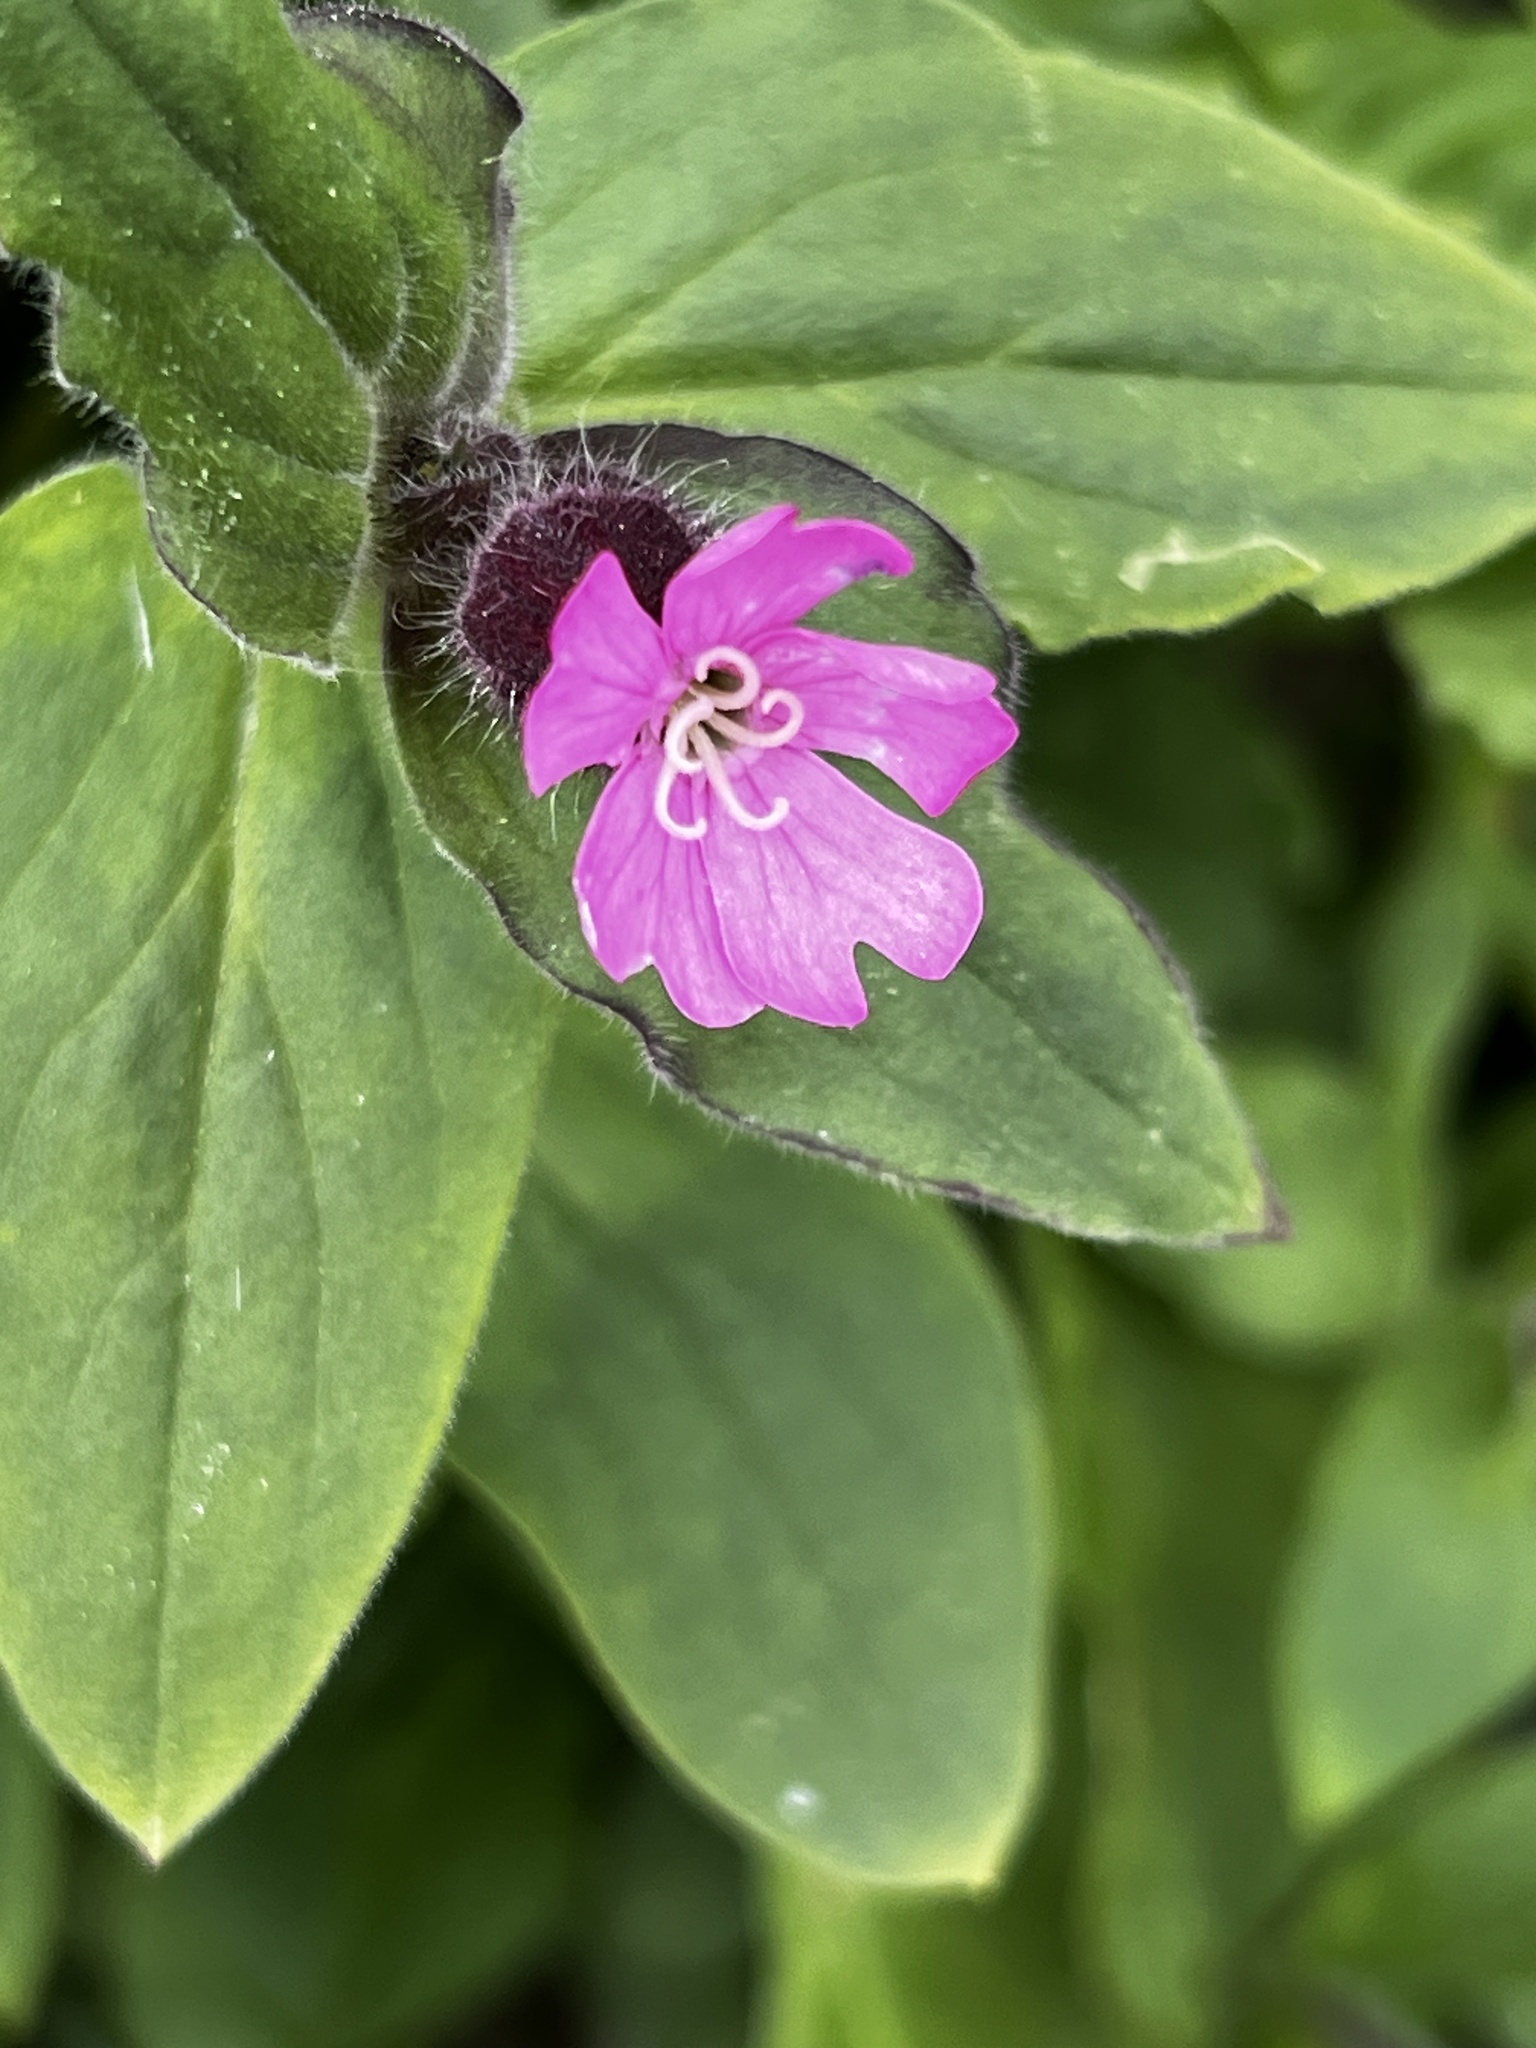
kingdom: Plantae
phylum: Tracheophyta
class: Magnoliopsida
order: Caryophyllales
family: Caryophyllaceae
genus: Silene
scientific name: Silene dioica
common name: Red campion
